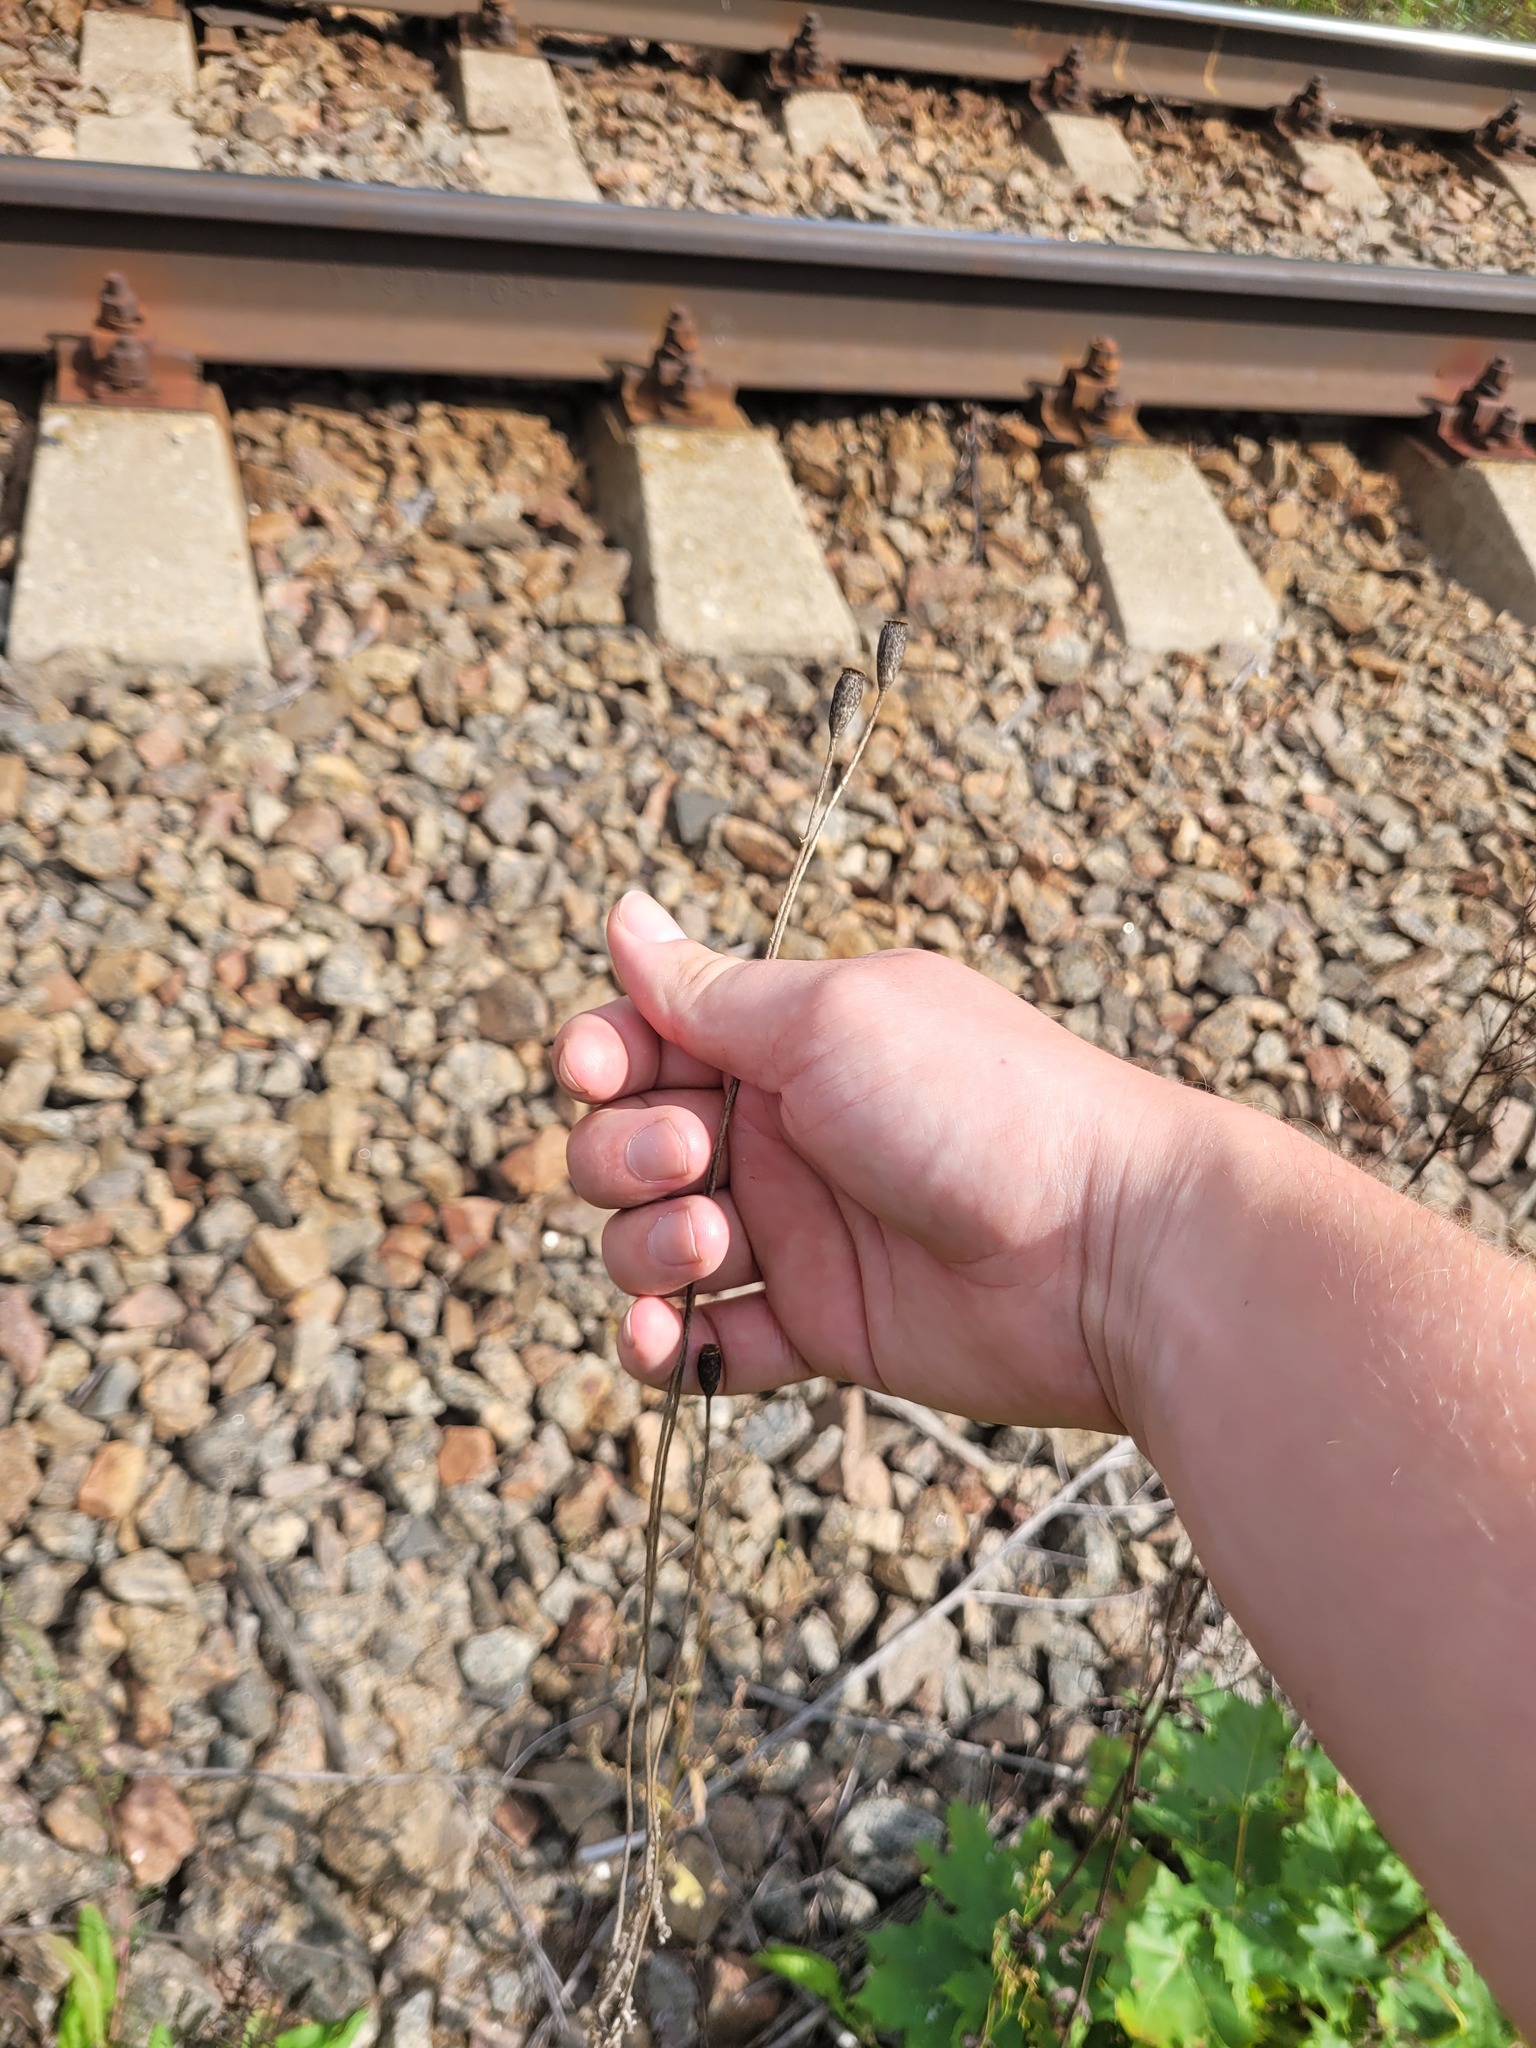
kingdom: Plantae
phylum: Tracheophyta
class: Magnoliopsida
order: Ranunculales
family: Papaveraceae
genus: Papaver
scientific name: Papaver dubium
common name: Long-headed poppy
